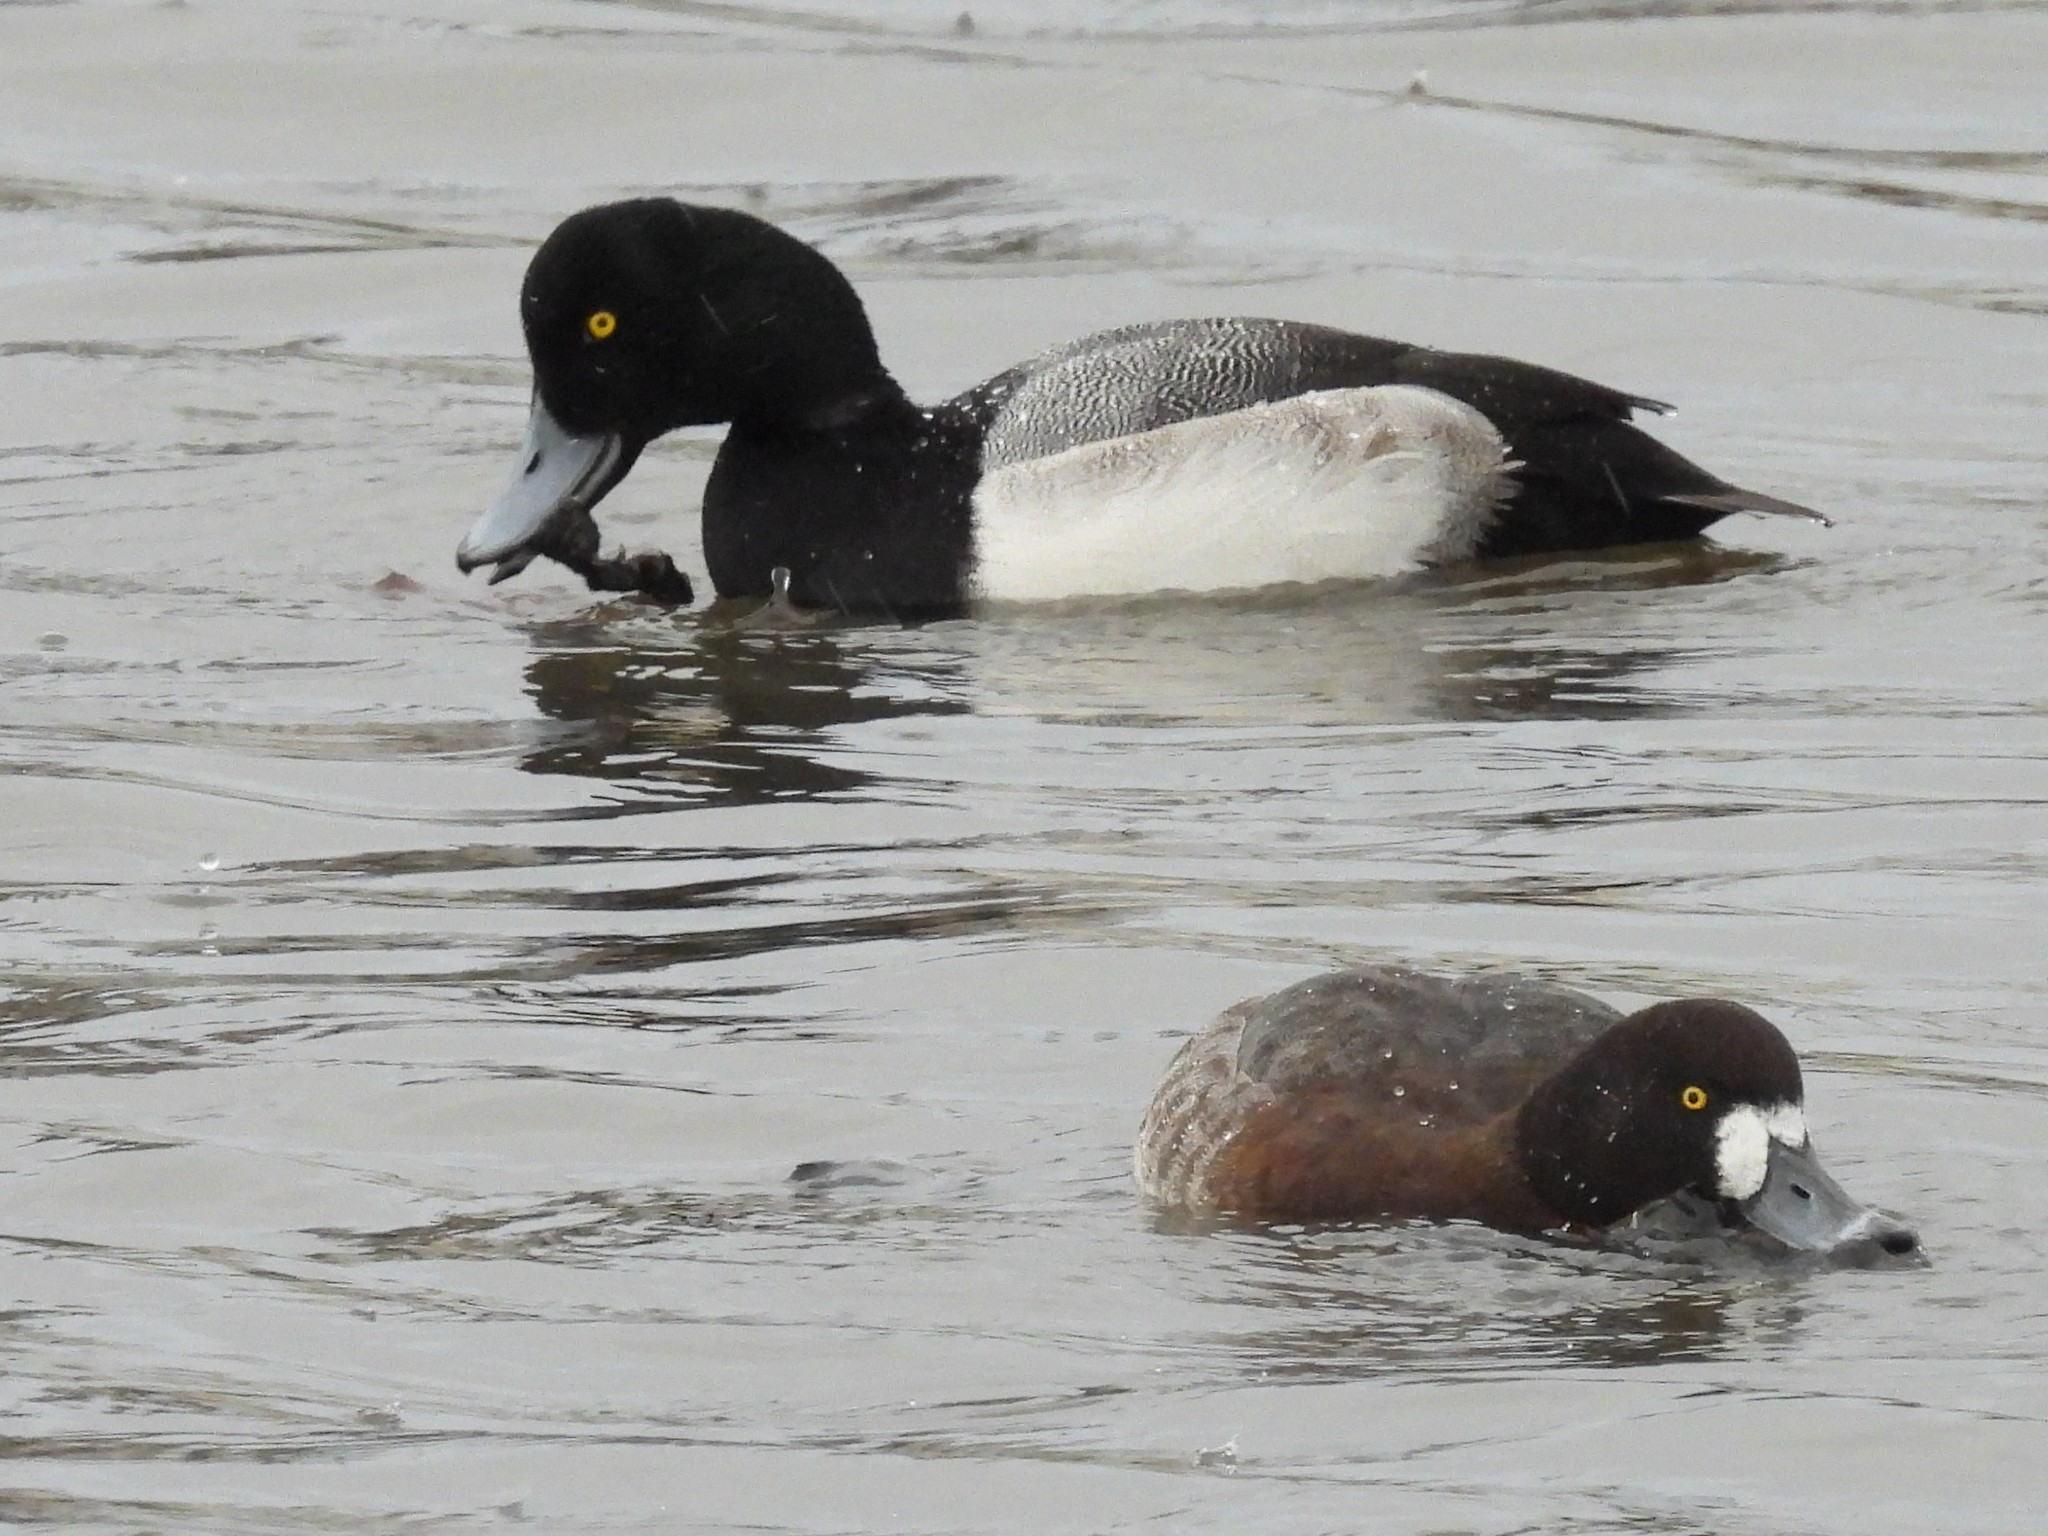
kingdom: Animalia
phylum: Chordata
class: Aves
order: Anseriformes
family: Anatidae
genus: Aythya
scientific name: Aythya marila
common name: Greater scaup
